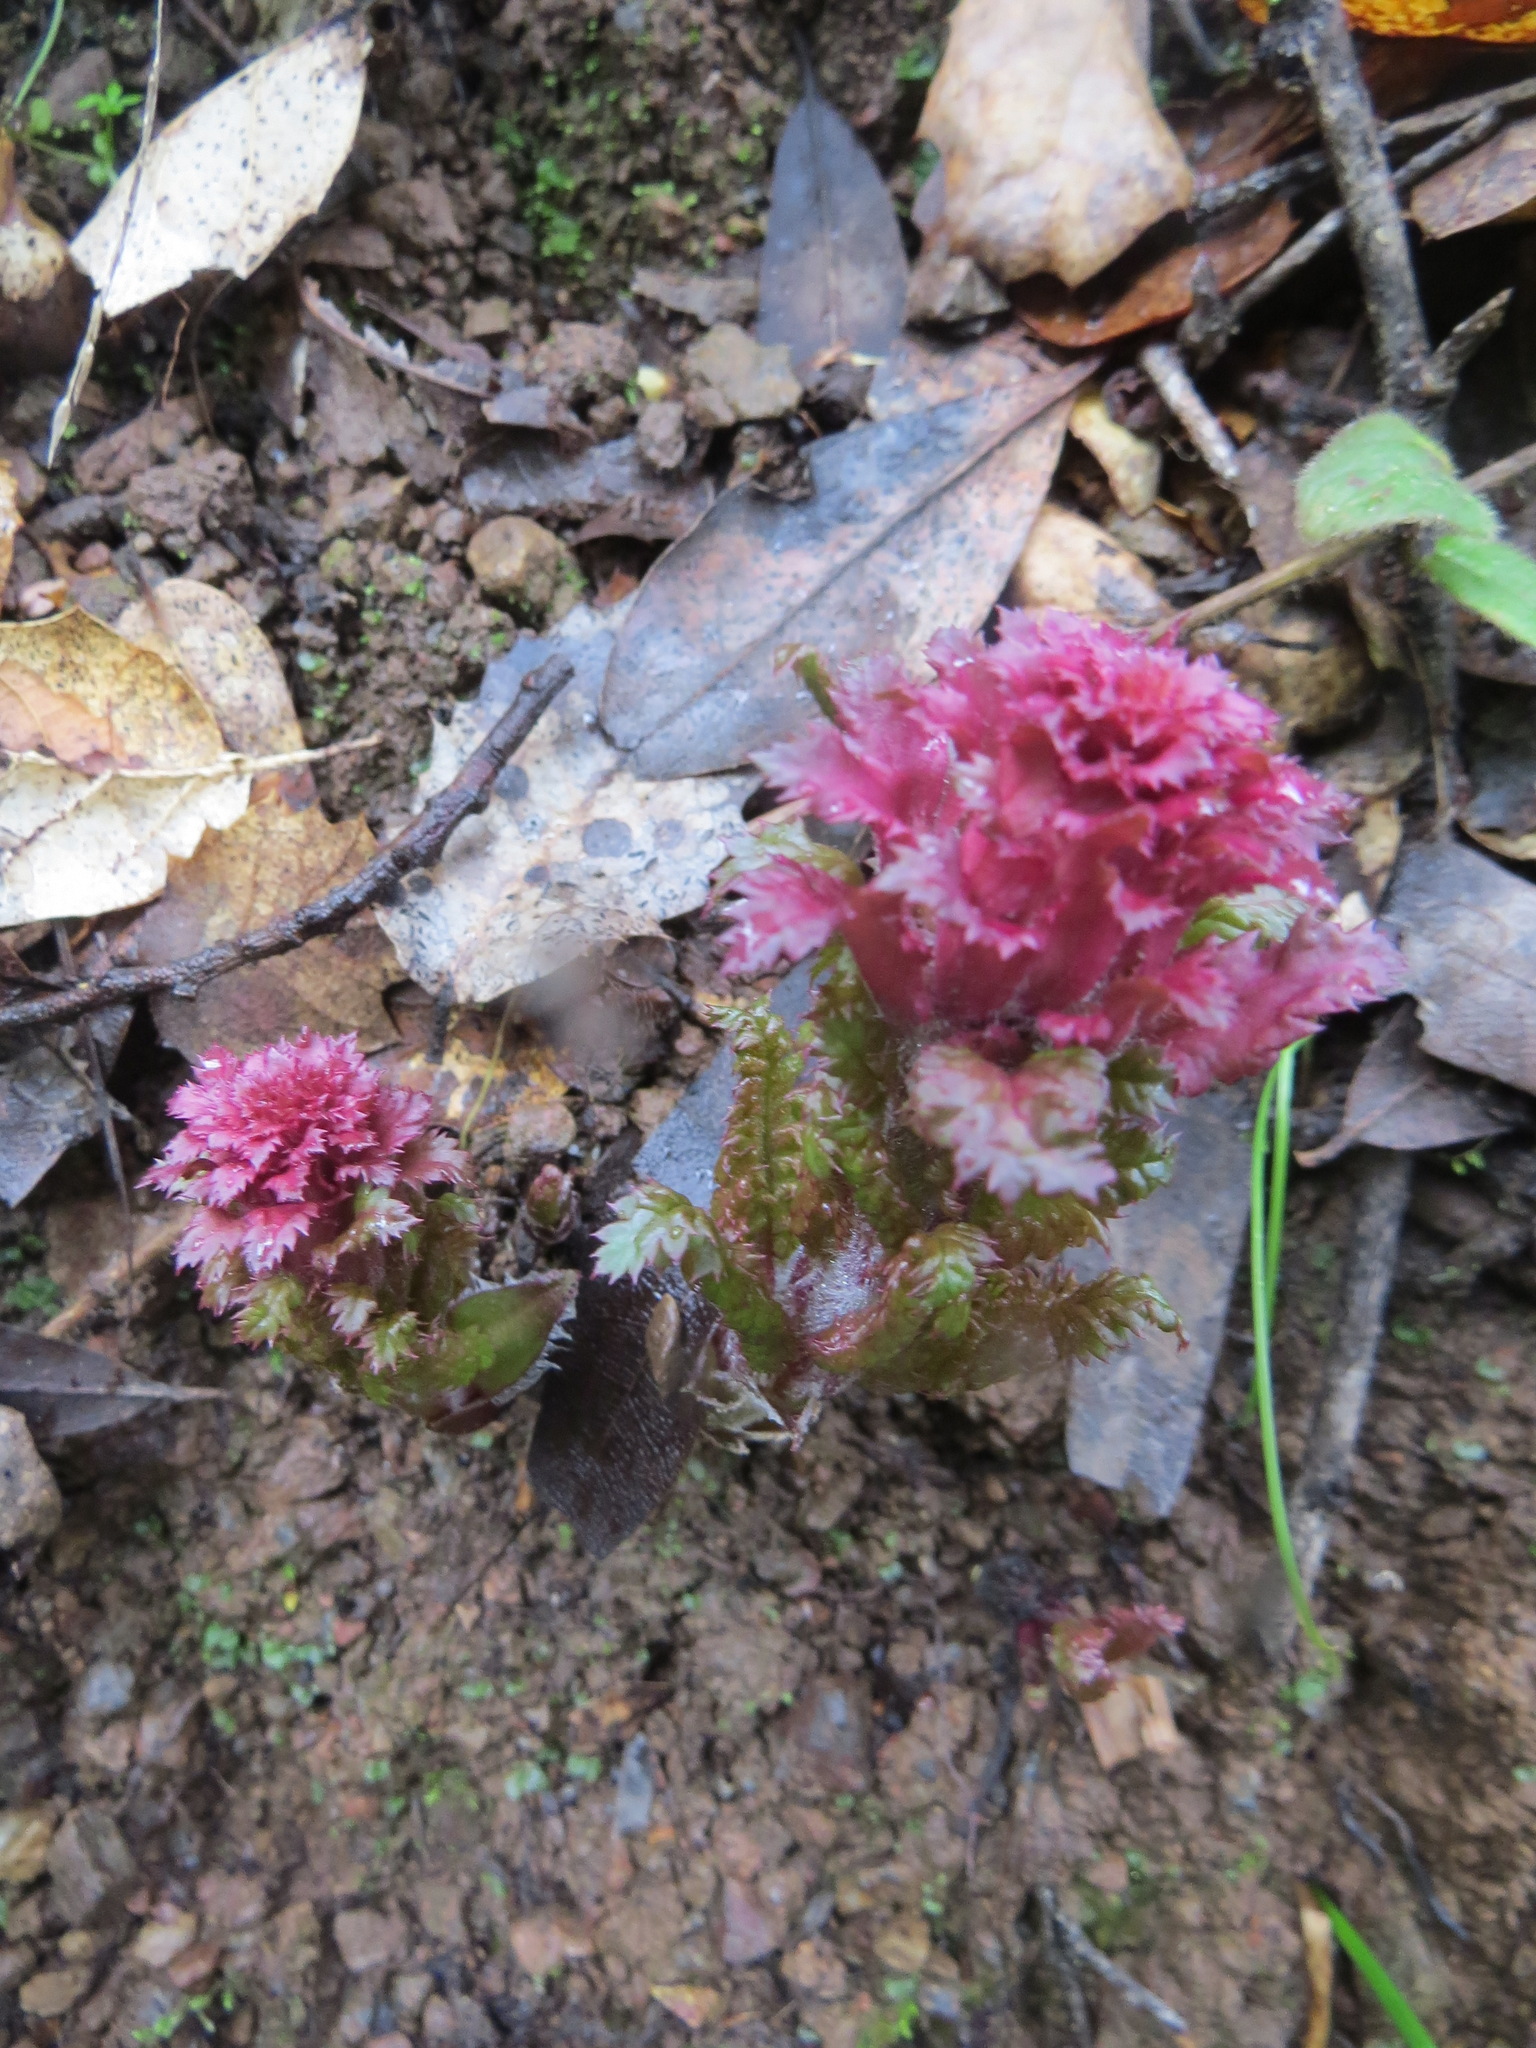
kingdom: Plantae
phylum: Tracheophyta
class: Magnoliopsida
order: Lamiales
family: Orobanchaceae
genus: Pedicularis
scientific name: Pedicularis densiflora
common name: Indian warrior
